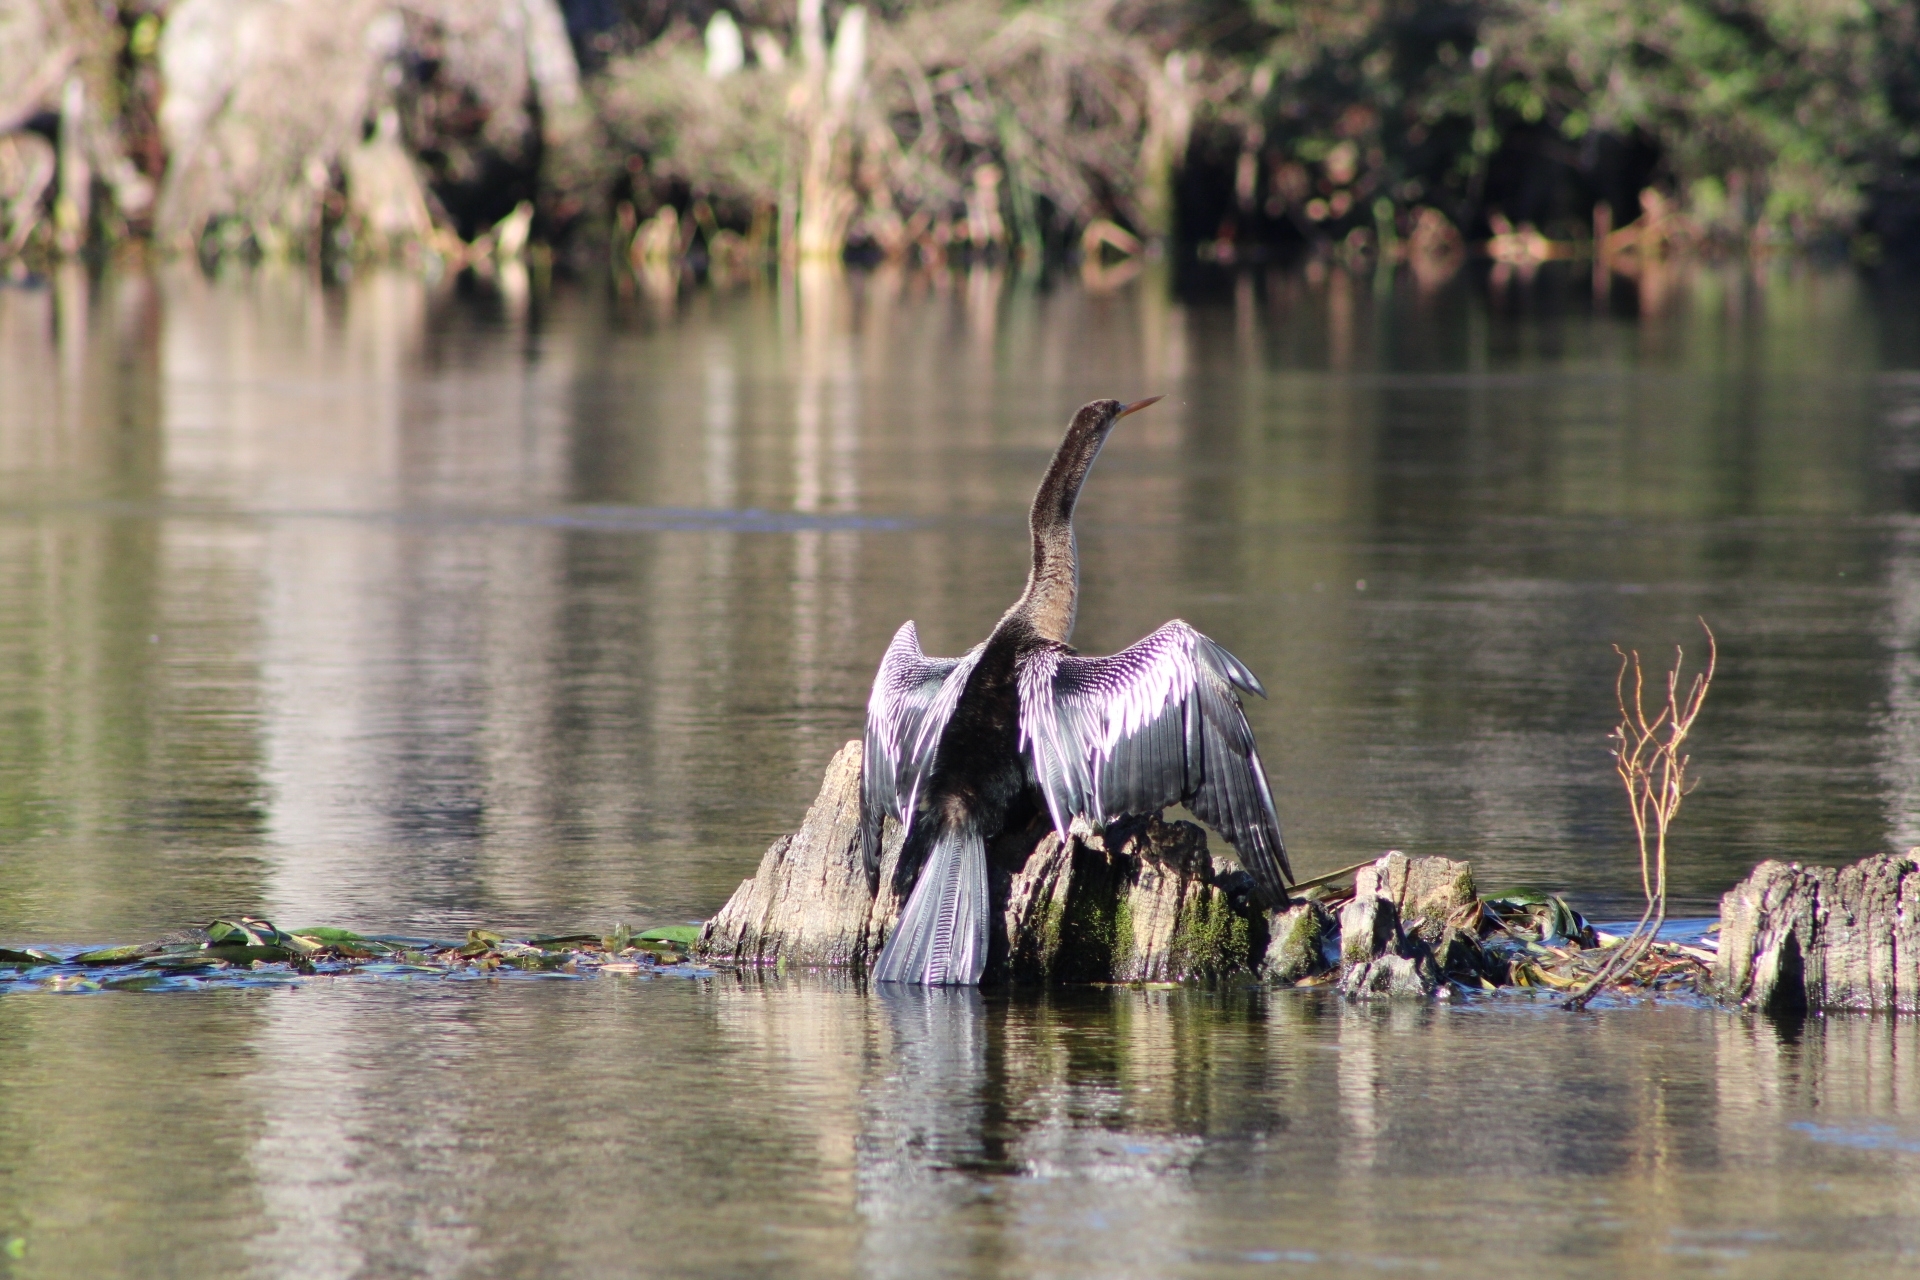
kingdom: Animalia
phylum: Chordata
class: Aves
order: Suliformes
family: Anhingidae
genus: Anhinga
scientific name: Anhinga anhinga
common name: Anhinga
